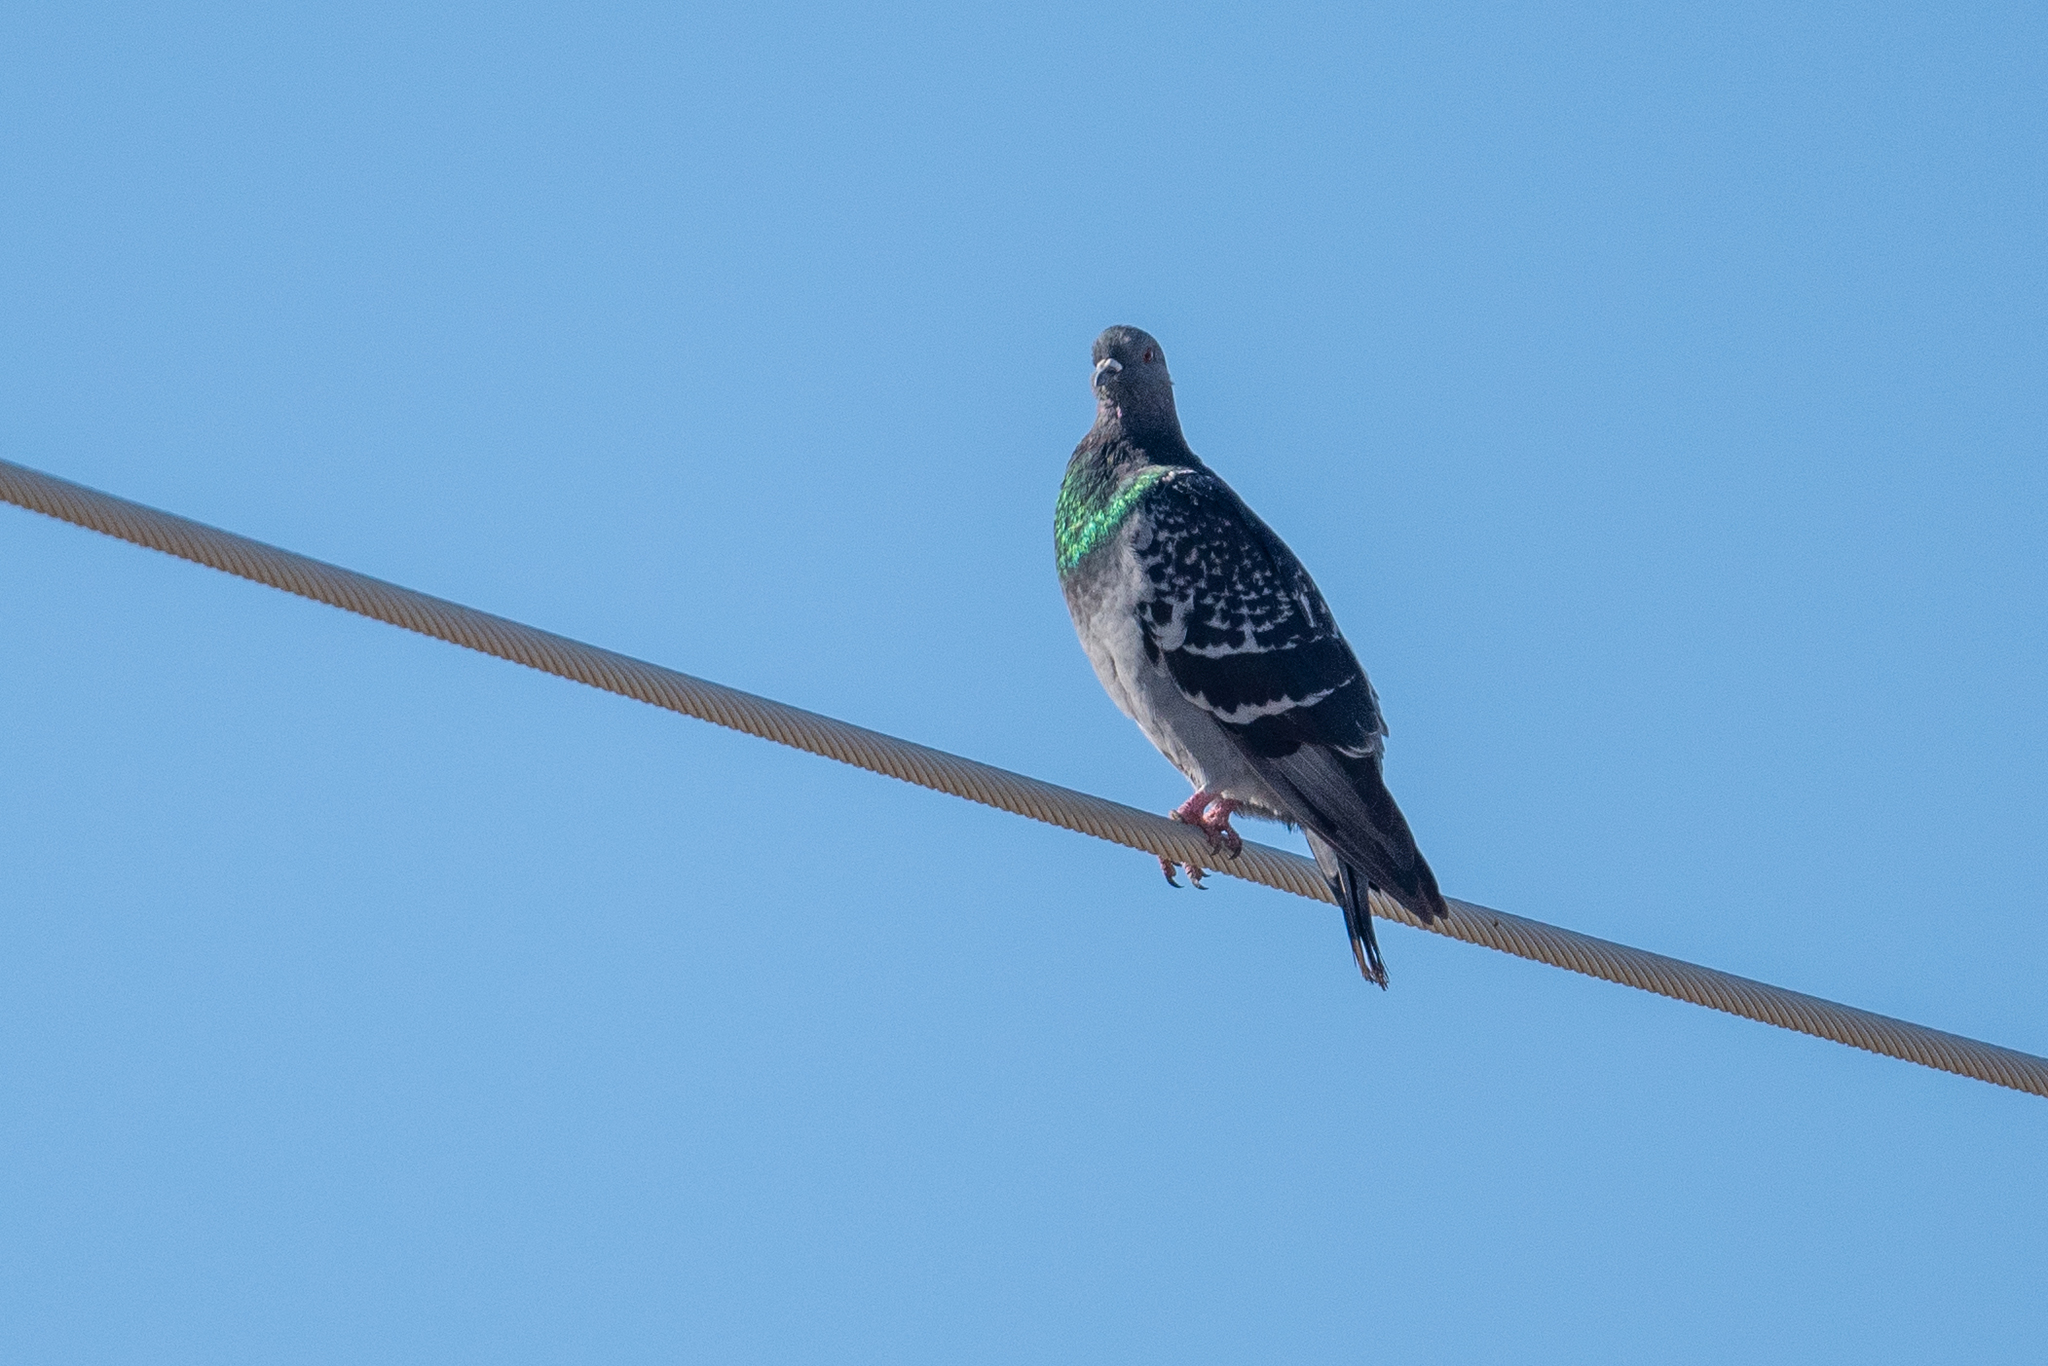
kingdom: Animalia
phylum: Chordata
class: Aves
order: Columbiformes
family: Columbidae
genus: Columba
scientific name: Columba livia
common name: Rock pigeon
